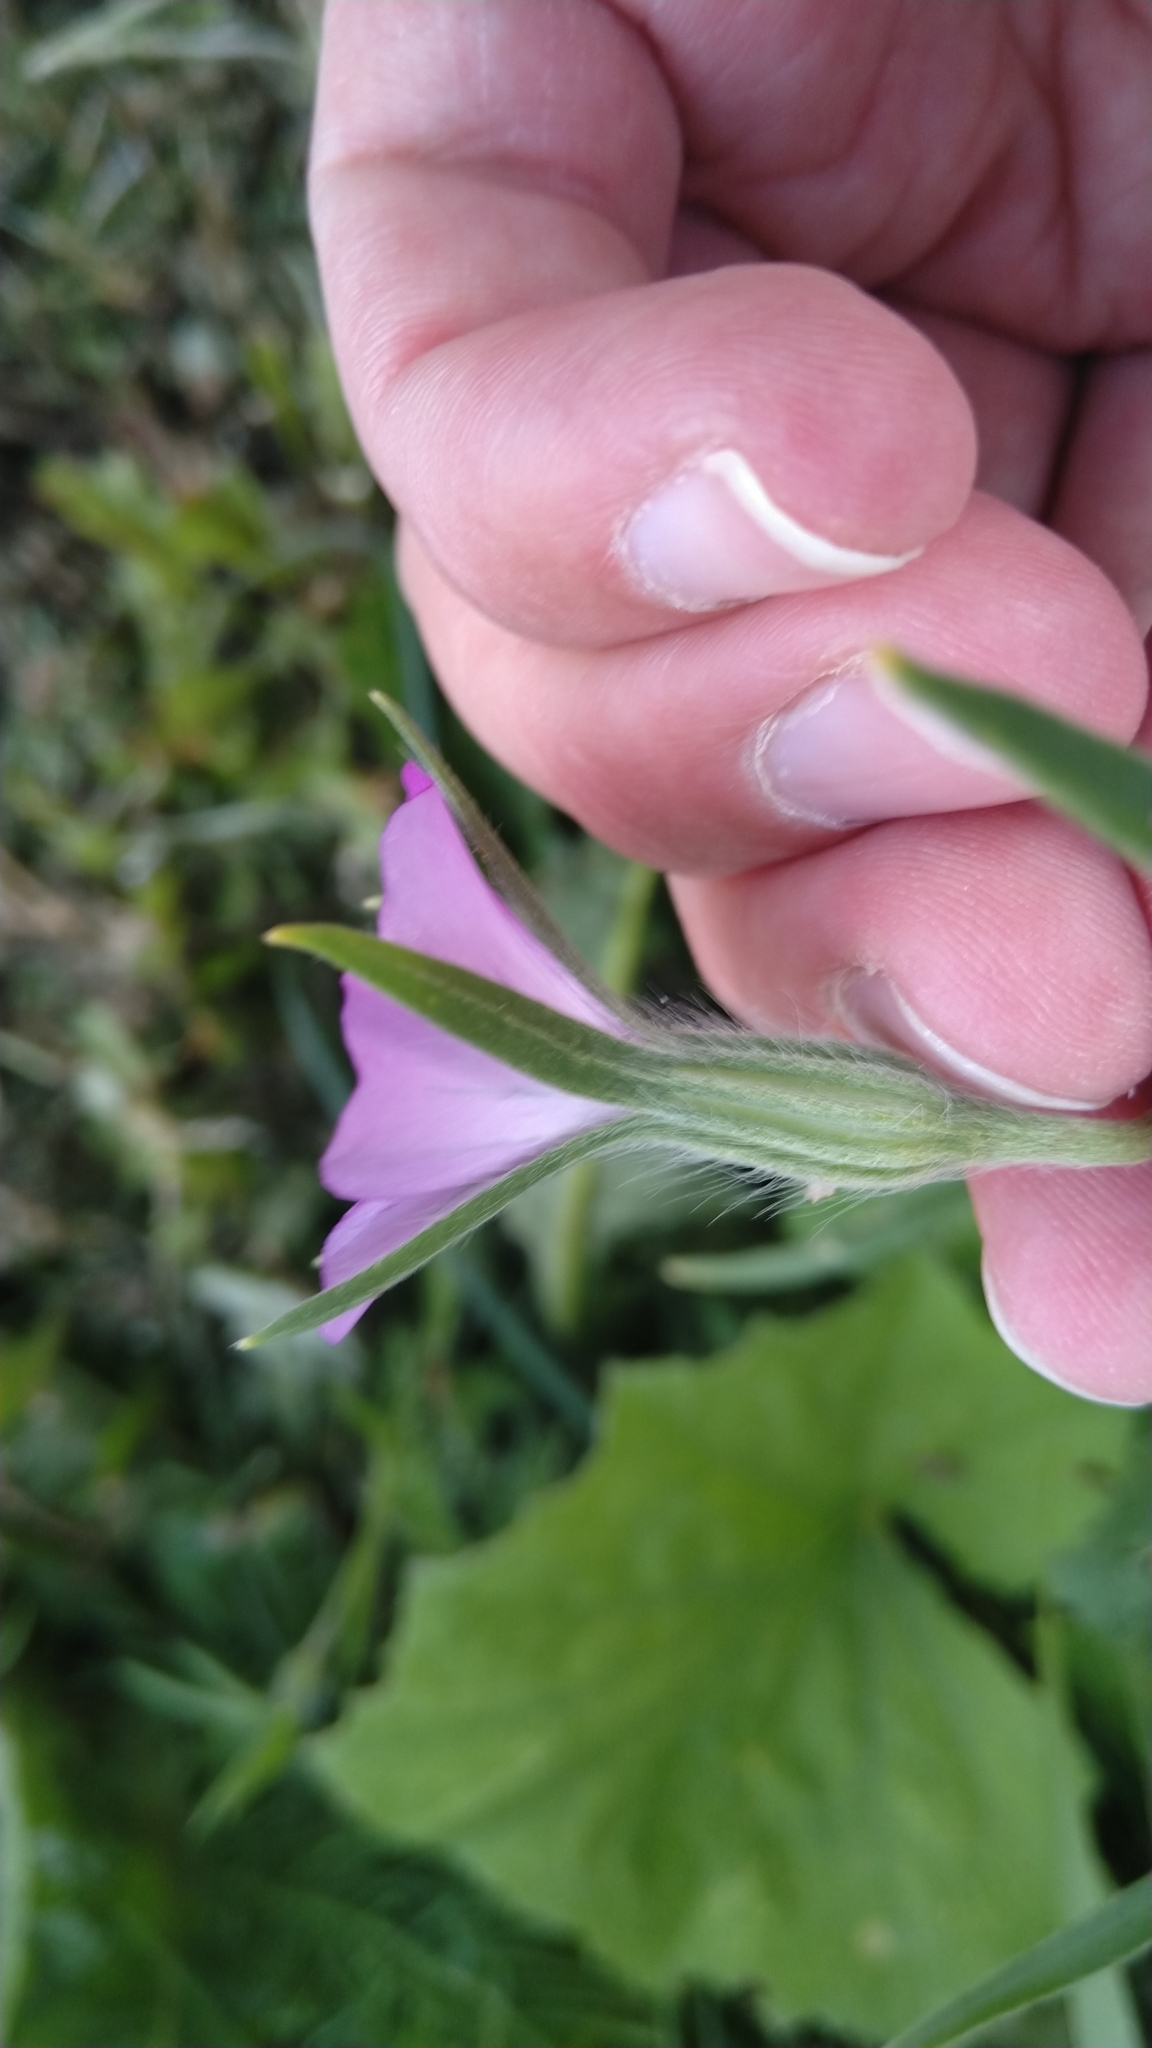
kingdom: Plantae
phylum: Tracheophyta
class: Magnoliopsida
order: Caryophyllales
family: Caryophyllaceae
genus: Agrostemma
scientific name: Agrostemma githago
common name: Common corncockle
